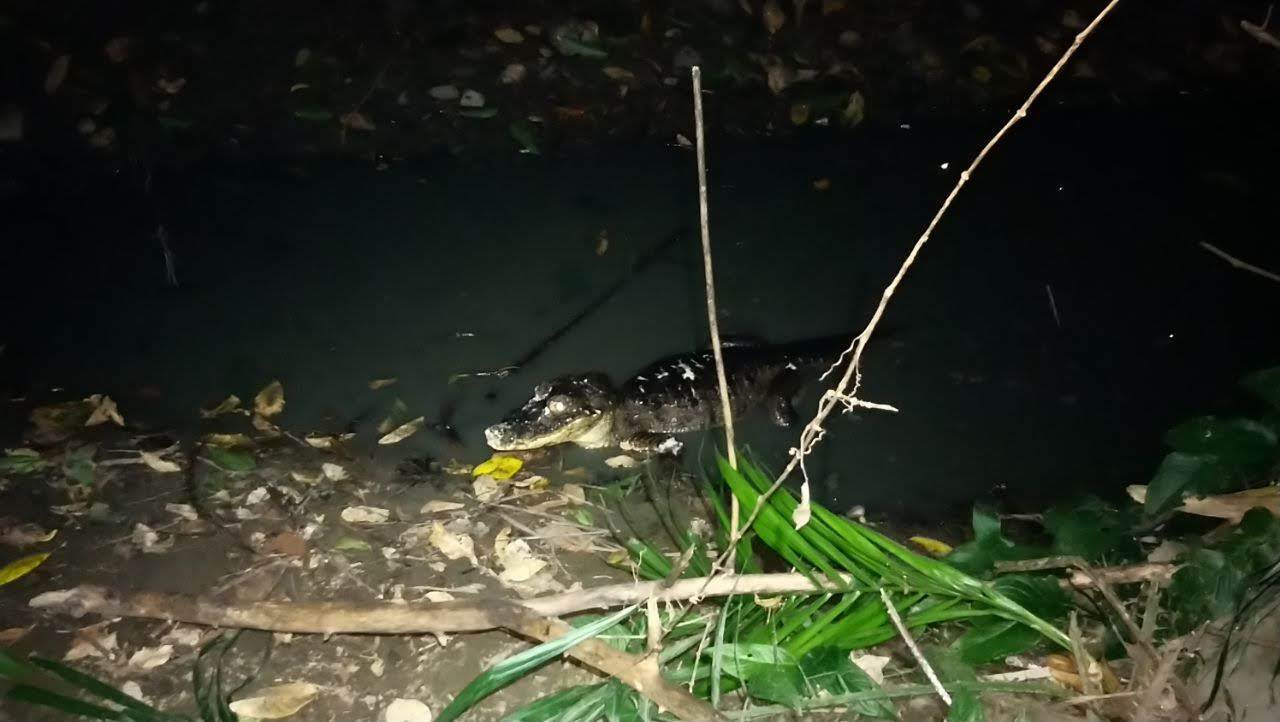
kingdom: Animalia
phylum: Chordata
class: Crocodylia
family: Alligatoridae
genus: Caiman
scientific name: Caiman crocodilus
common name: Common caiman
